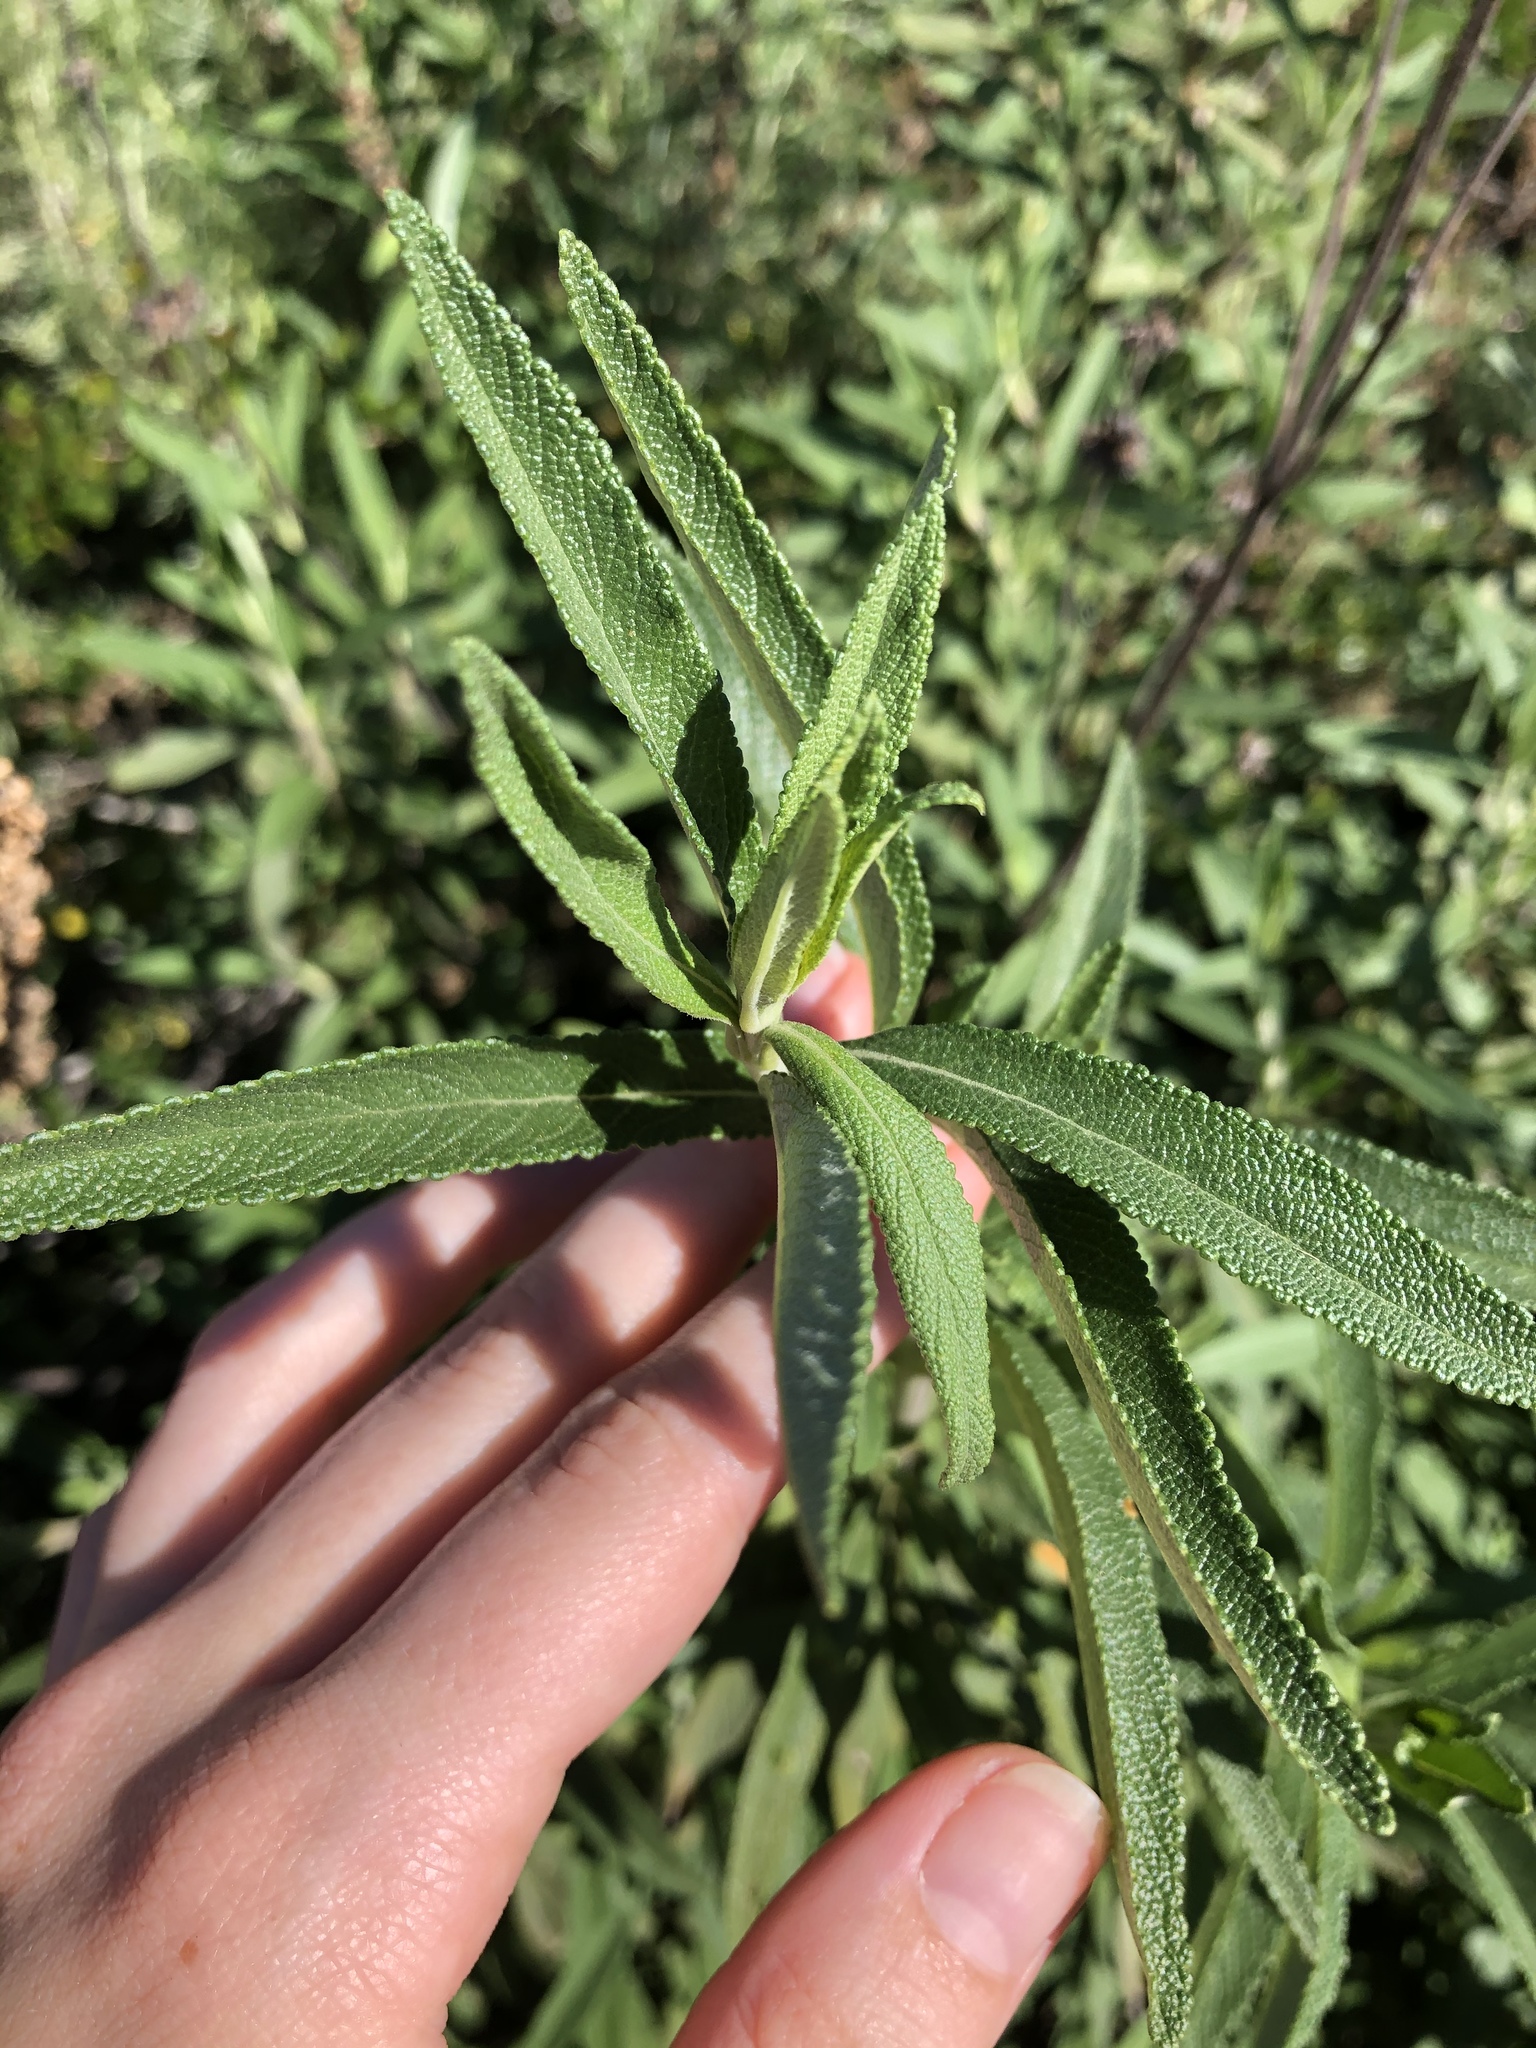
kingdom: Plantae
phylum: Tracheophyta
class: Magnoliopsida
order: Lamiales
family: Lamiaceae
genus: Salvia
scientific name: Salvia mellifera
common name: Black sage
